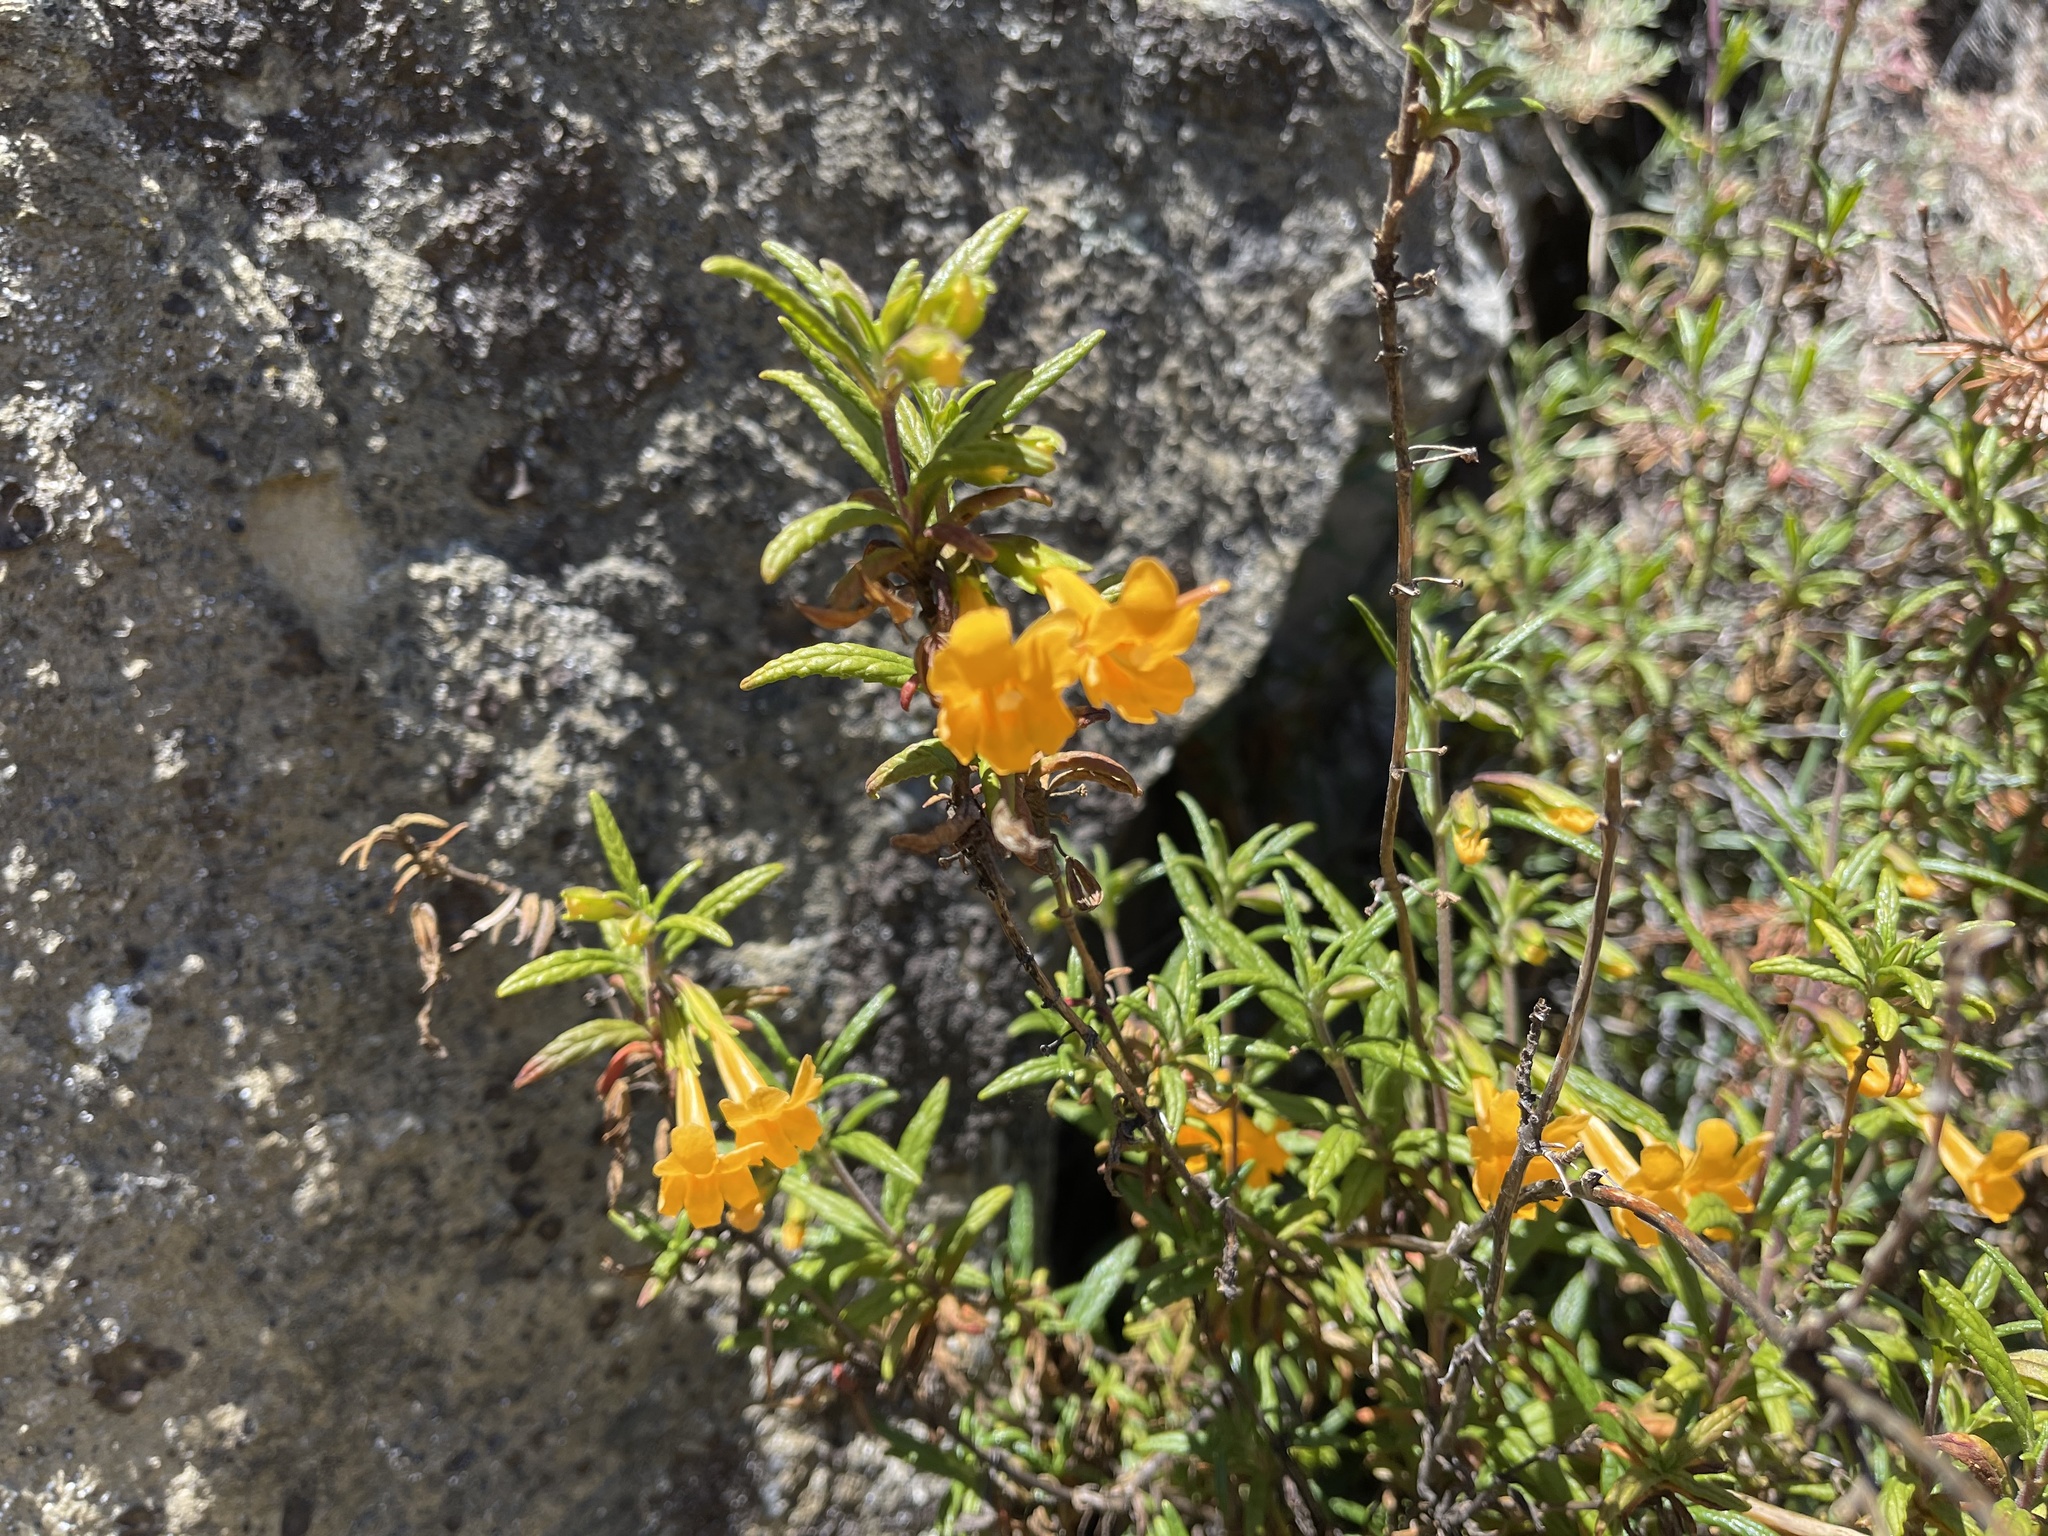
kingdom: Plantae
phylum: Tracheophyta
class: Magnoliopsida
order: Lamiales
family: Phrymaceae
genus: Diplacus
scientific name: Diplacus aurantiacus
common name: Bush monkey-flower
